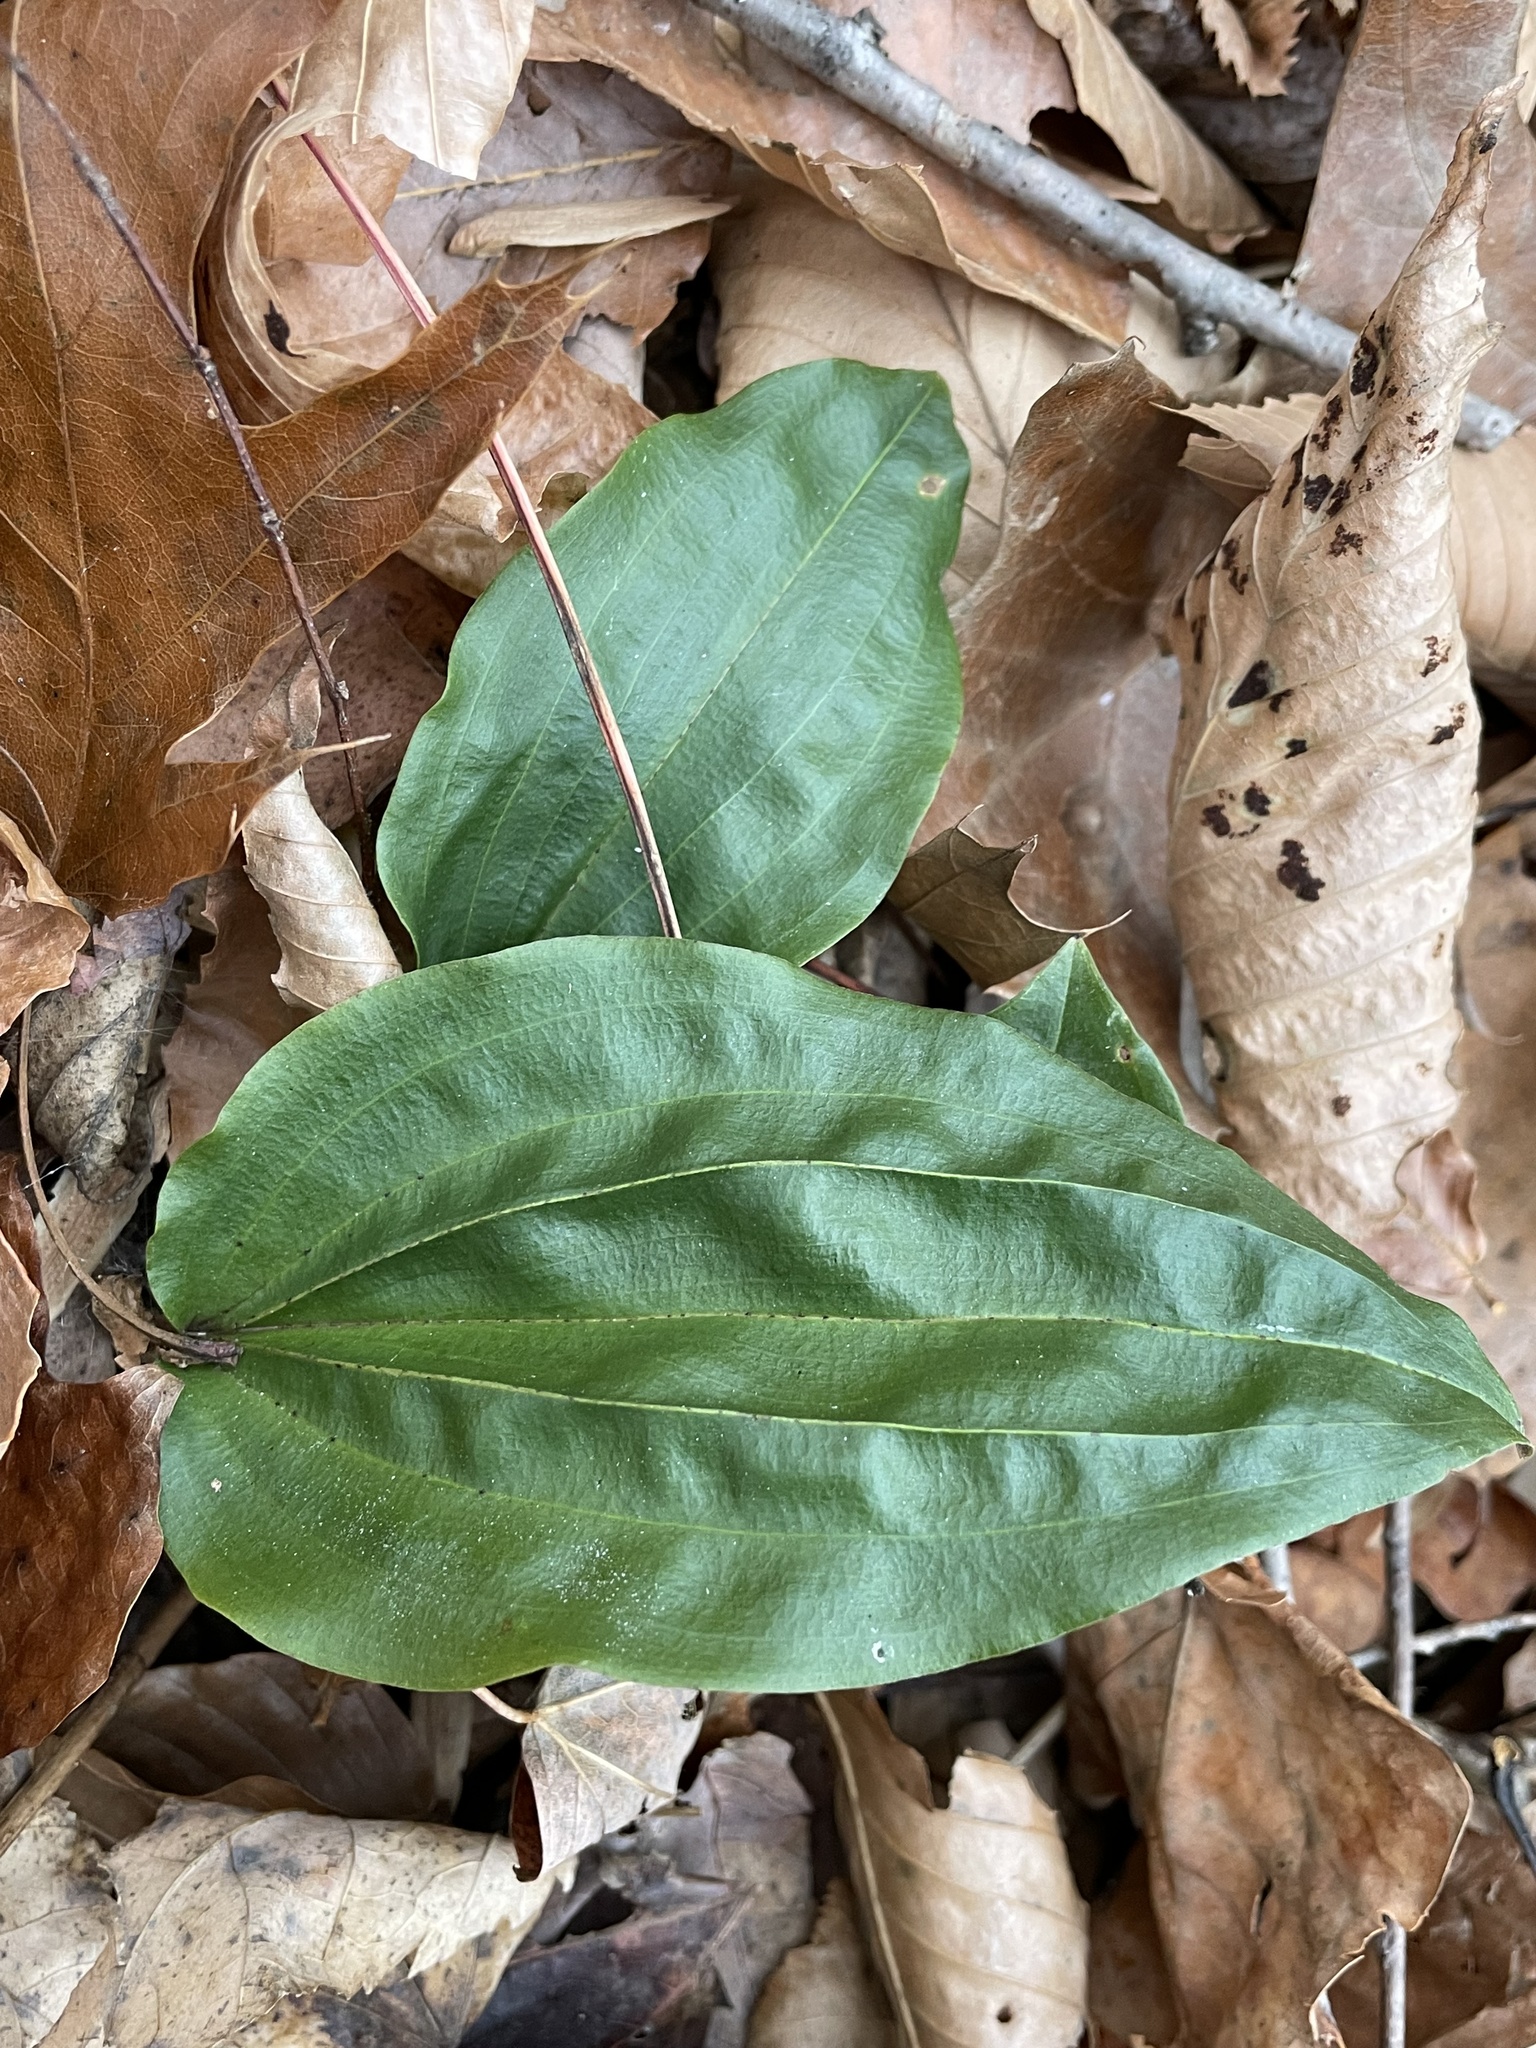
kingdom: Plantae
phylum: Tracheophyta
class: Liliopsida
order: Asparagales
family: Orchidaceae
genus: Tipularia
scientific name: Tipularia discolor
